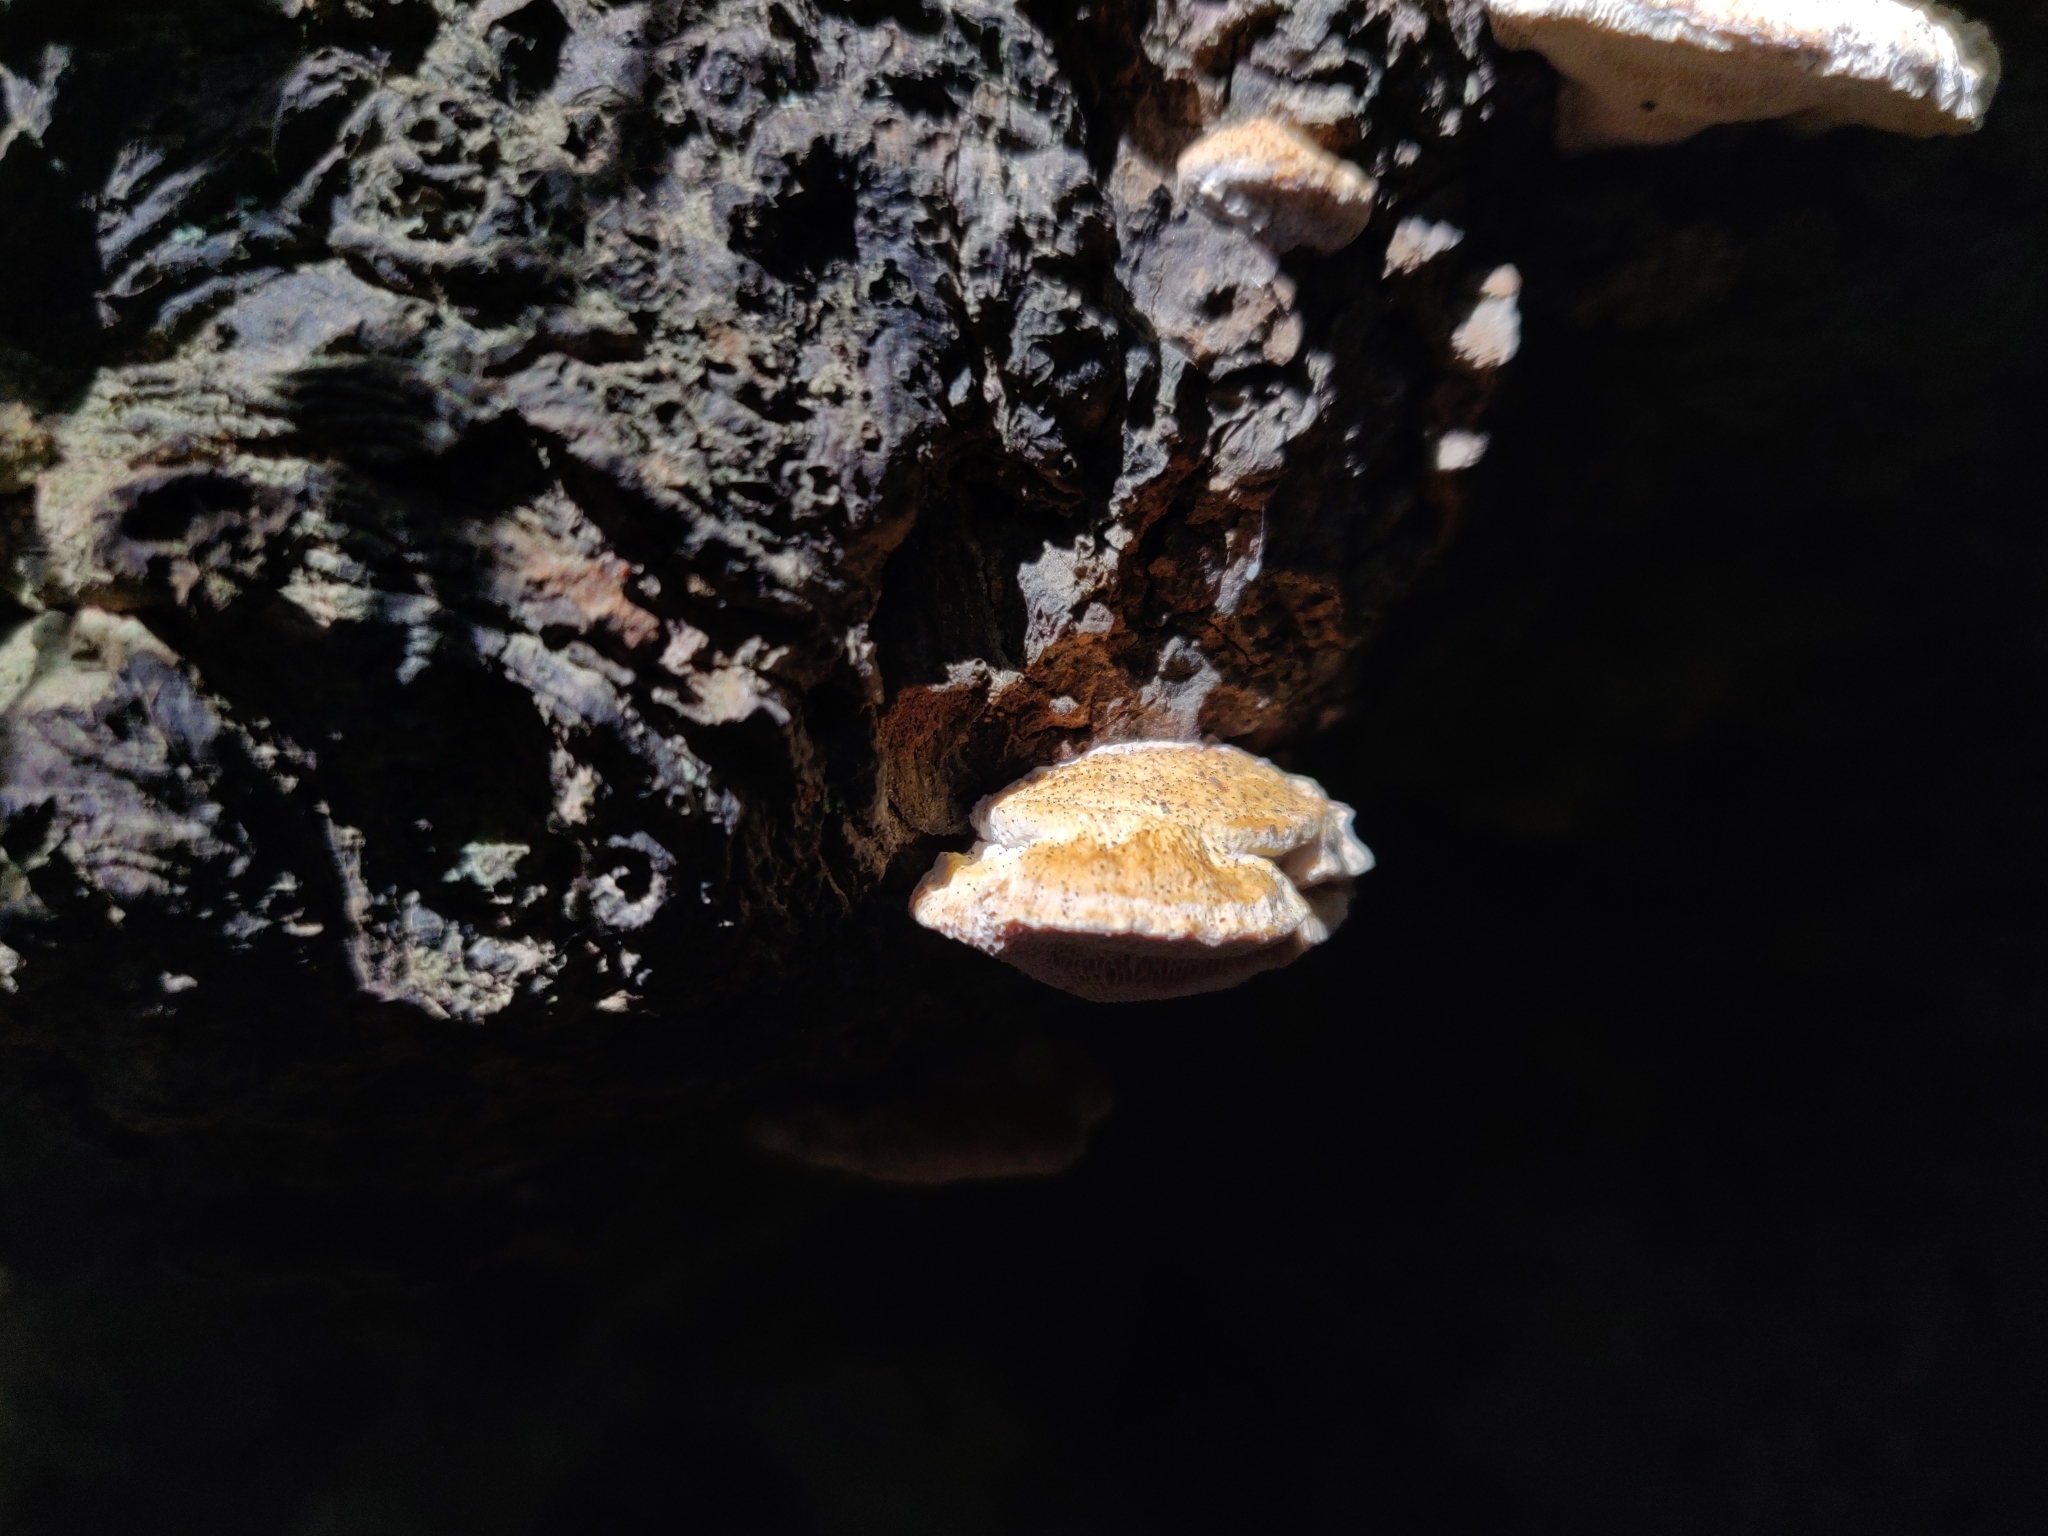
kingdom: Fungi
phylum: Basidiomycota
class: Agaricomycetes
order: Polyporales
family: Polyporaceae
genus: Truncospora
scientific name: Truncospora ochroleuca
